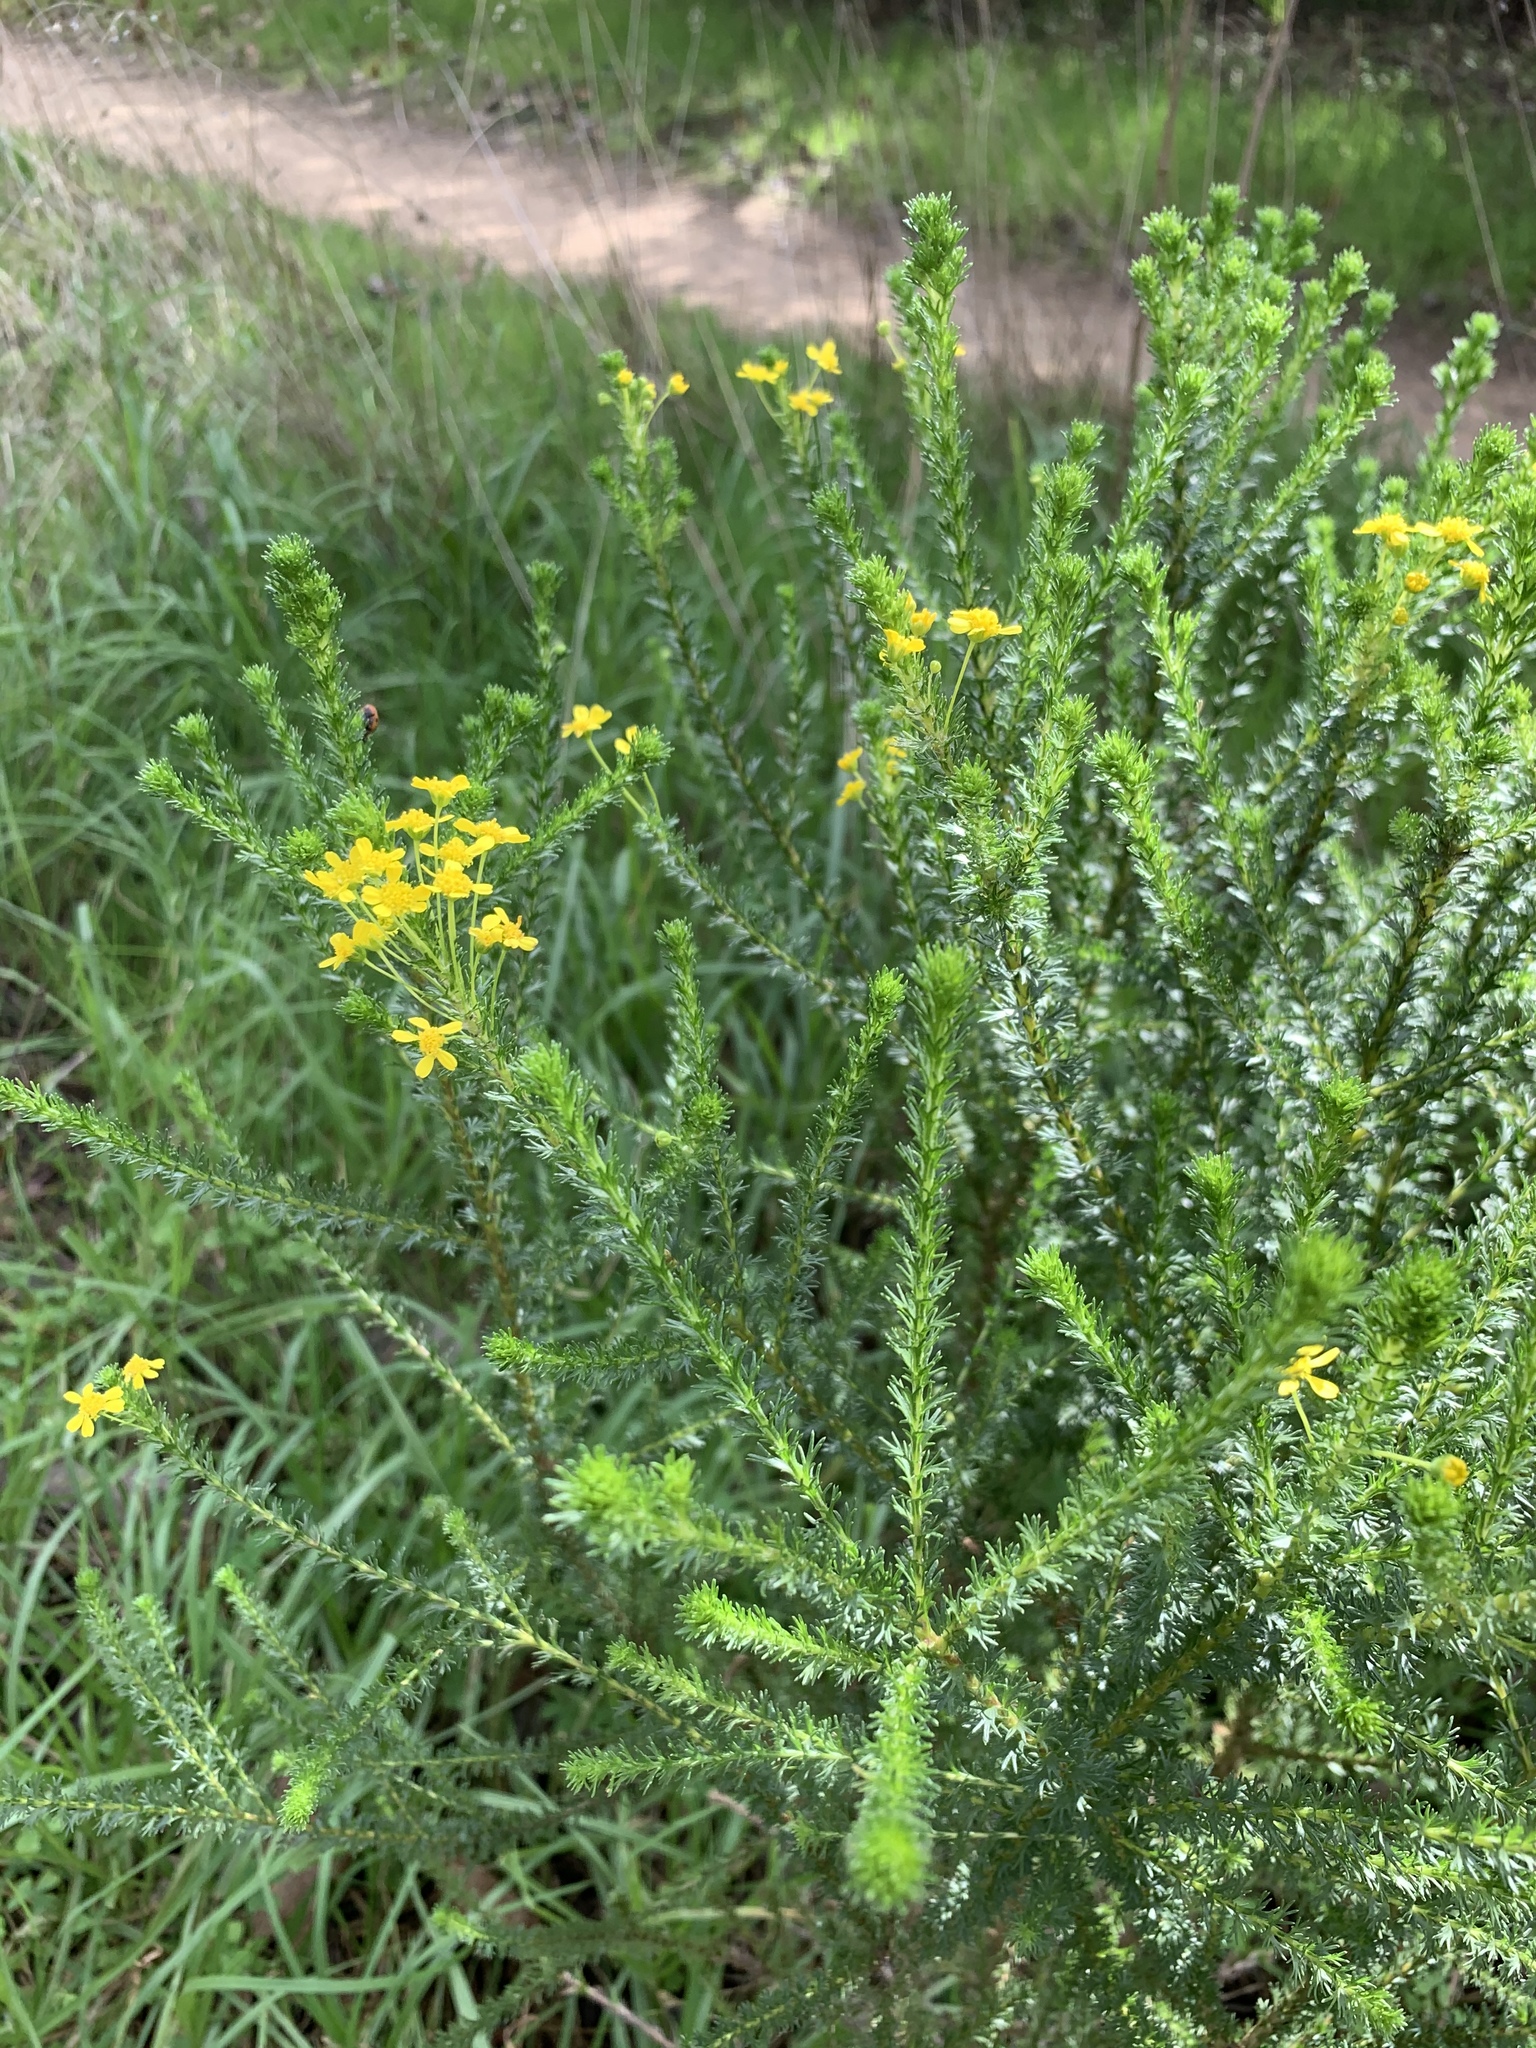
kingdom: Plantae
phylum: Tracheophyta
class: Magnoliopsida
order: Asterales
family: Asteraceae
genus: Euryops
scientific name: Euryops virgineus
